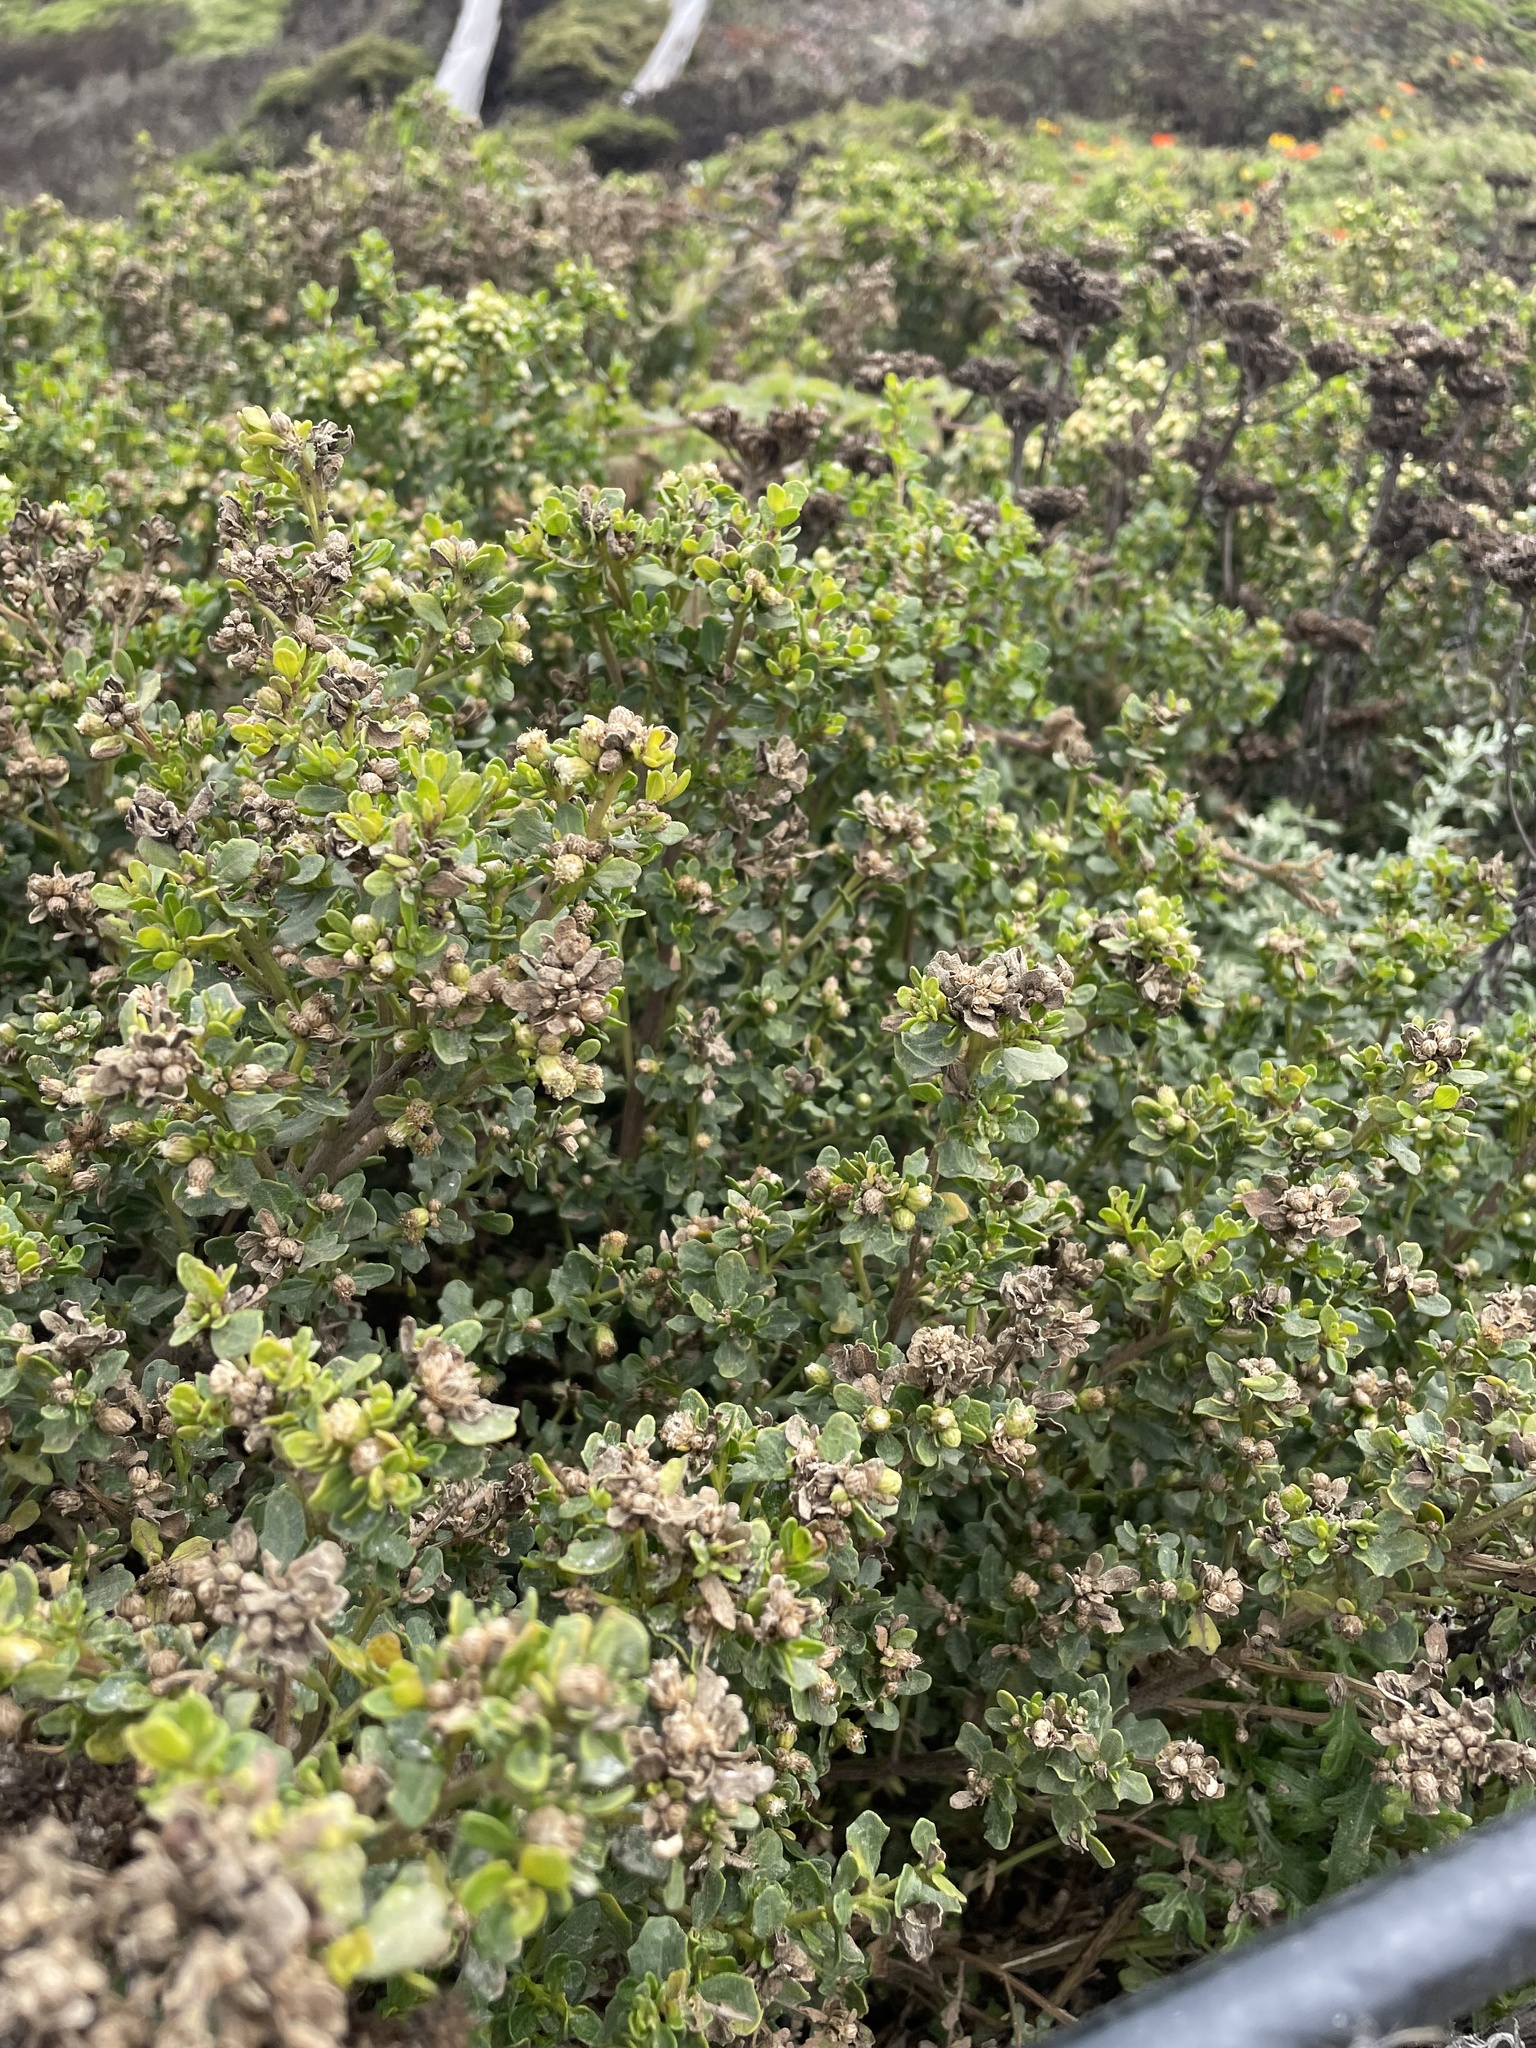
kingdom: Plantae
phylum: Tracheophyta
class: Magnoliopsida
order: Asterales
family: Asteraceae
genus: Baccharis
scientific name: Baccharis pilularis
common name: Coyotebrush
